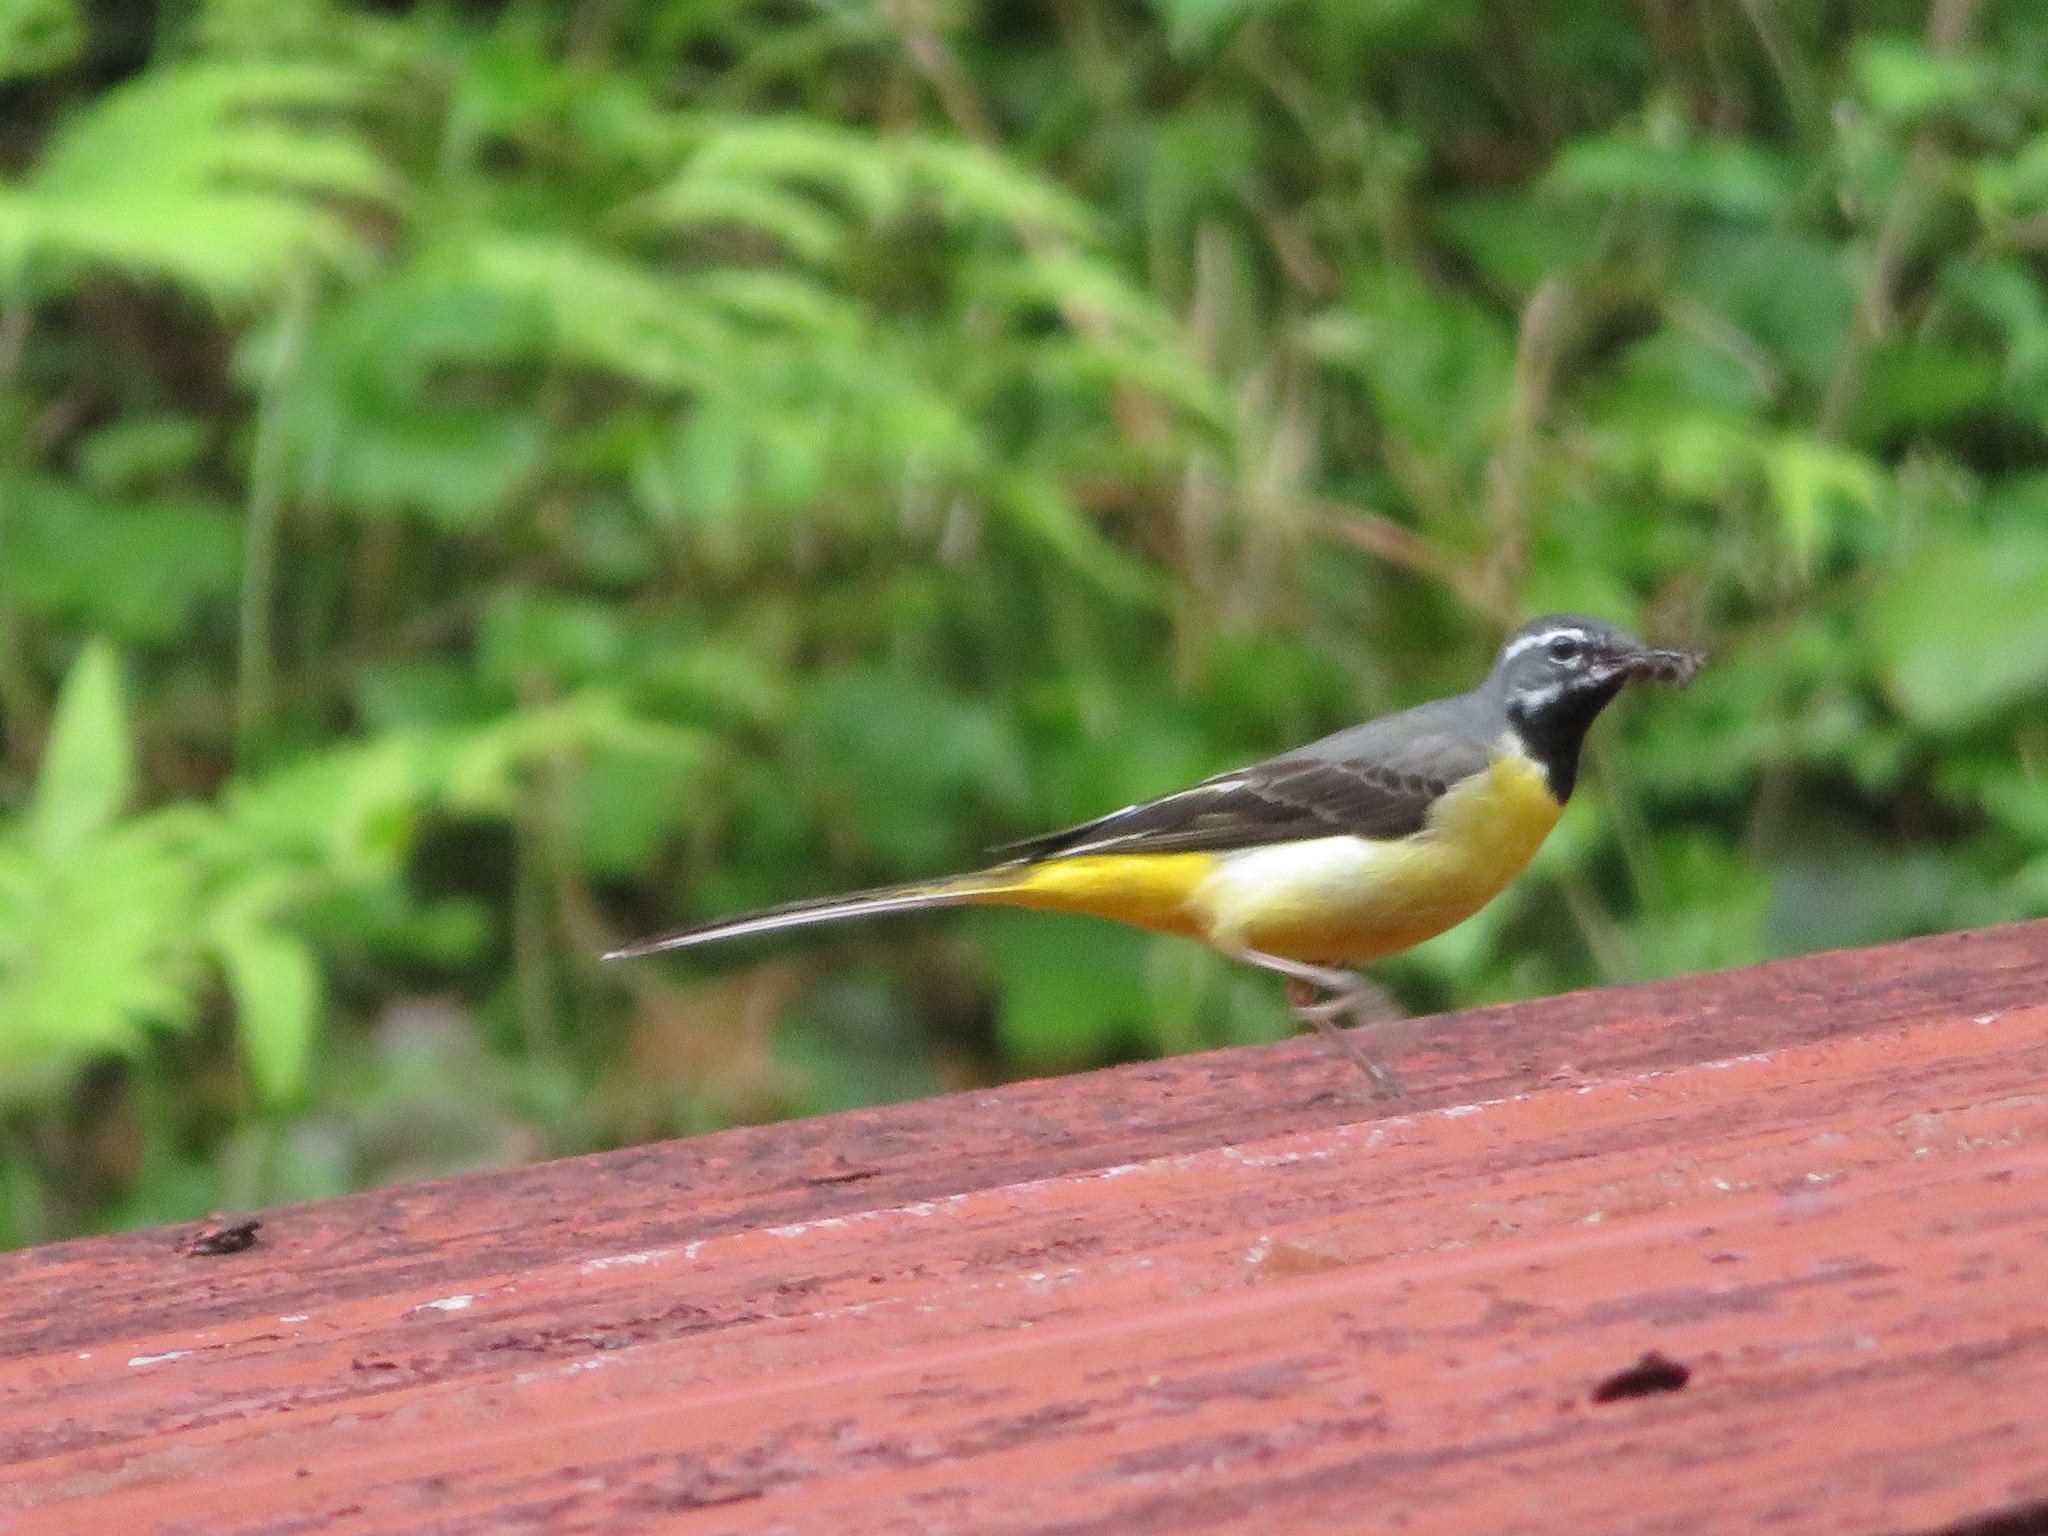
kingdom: Animalia
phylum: Chordata
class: Aves
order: Passeriformes
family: Motacillidae
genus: Motacilla
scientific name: Motacilla cinerea
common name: Grey wagtail
